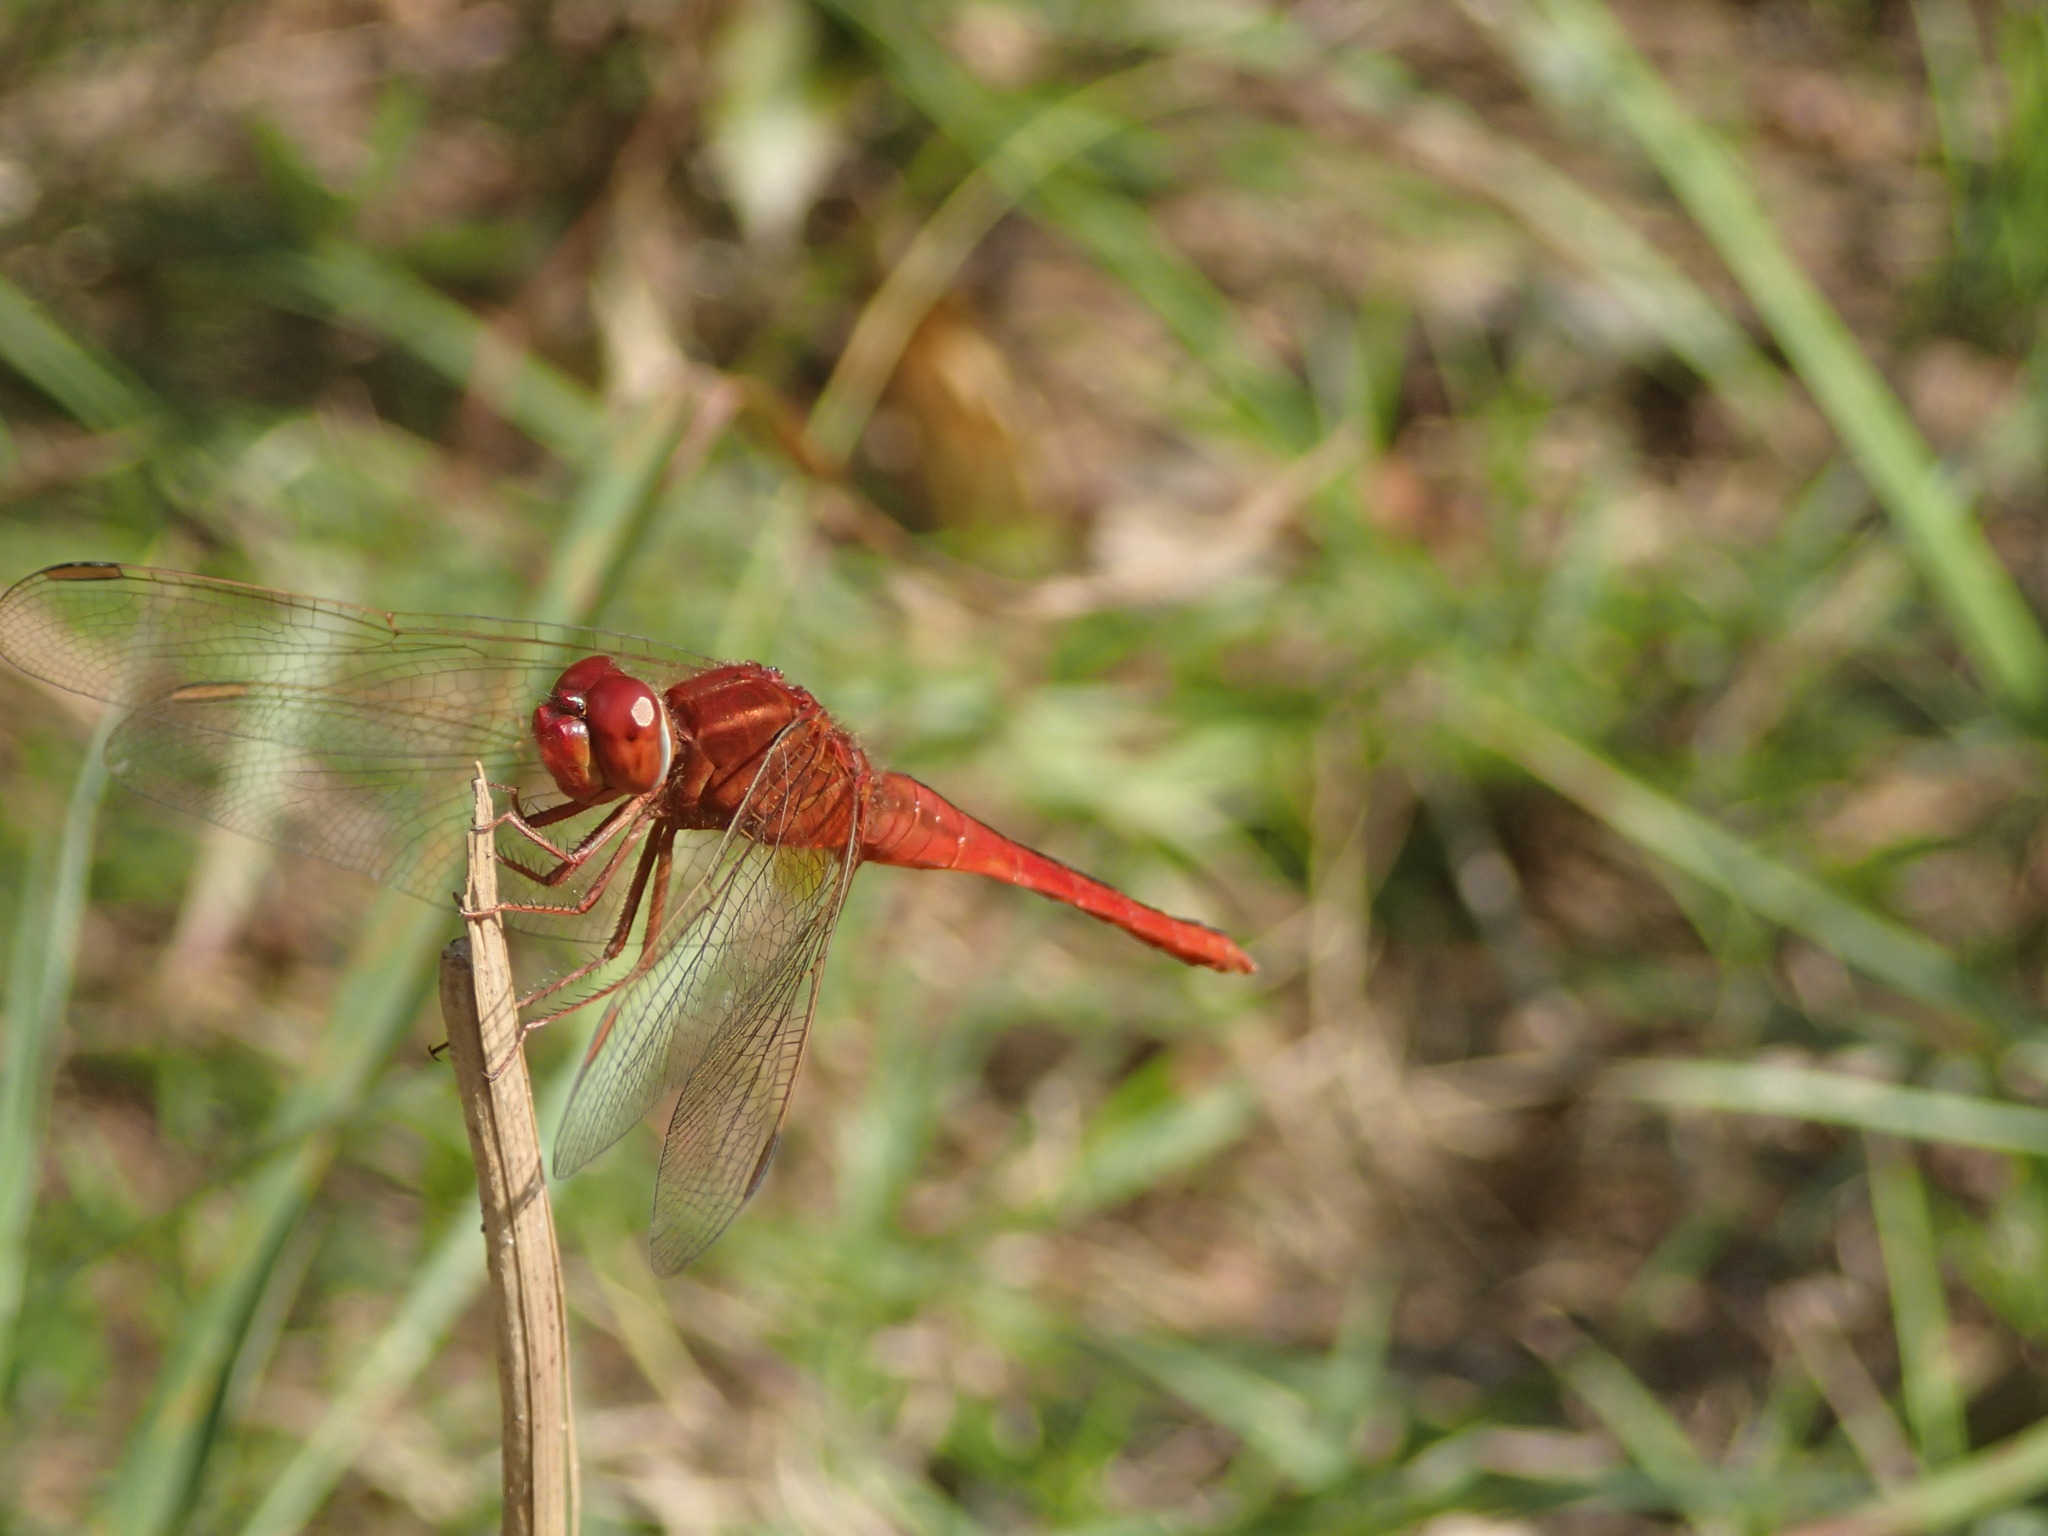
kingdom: Animalia
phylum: Arthropoda
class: Insecta
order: Odonata
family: Libellulidae
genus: Crocothemis
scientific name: Crocothemis servilia
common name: Scarlet skimmer
